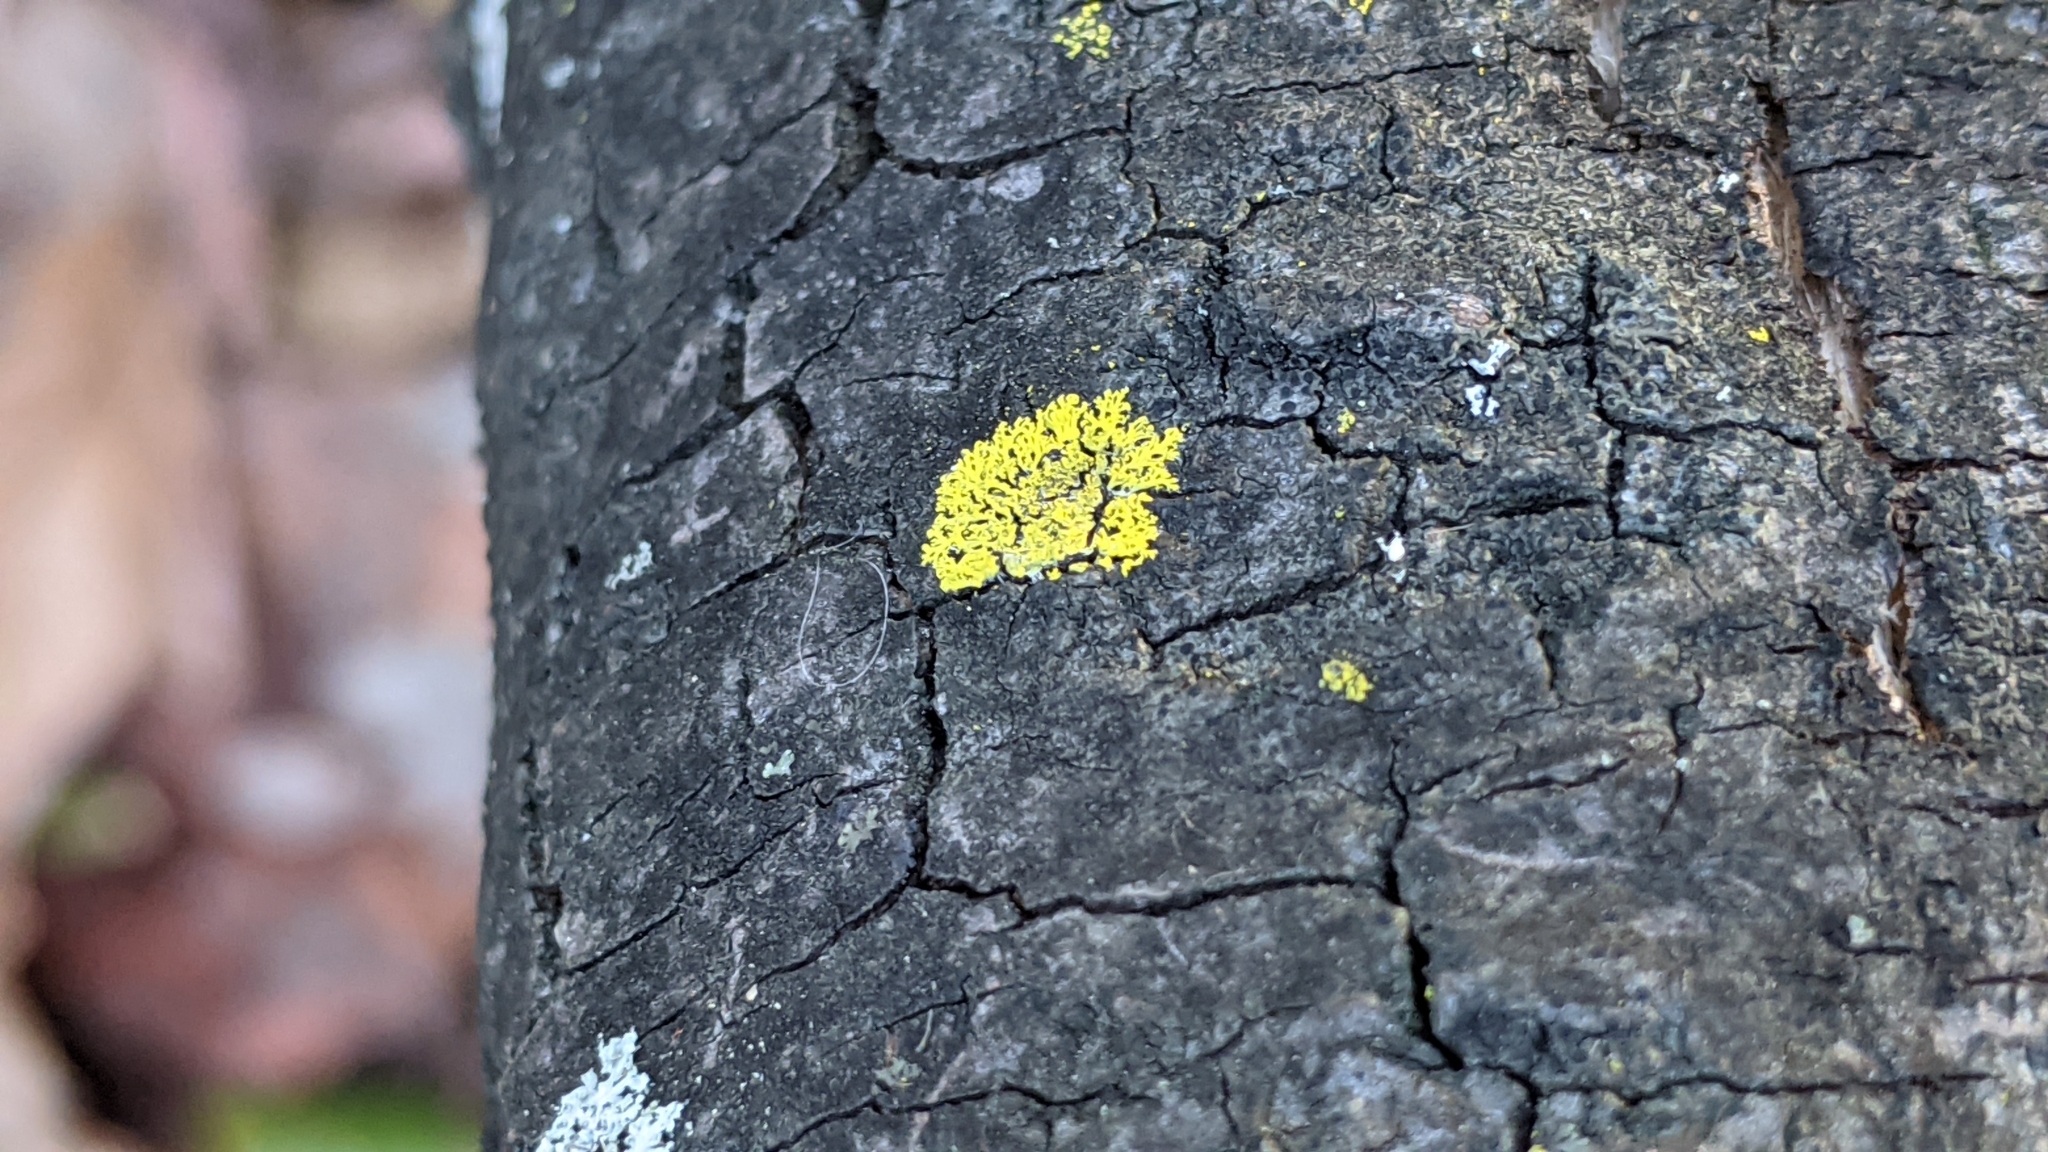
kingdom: Fungi
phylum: Ascomycota
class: Candelariomycetes
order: Candelariales
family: Candelariaceae
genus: Candelaria
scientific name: Candelaria concolor
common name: Candleflame lichen
